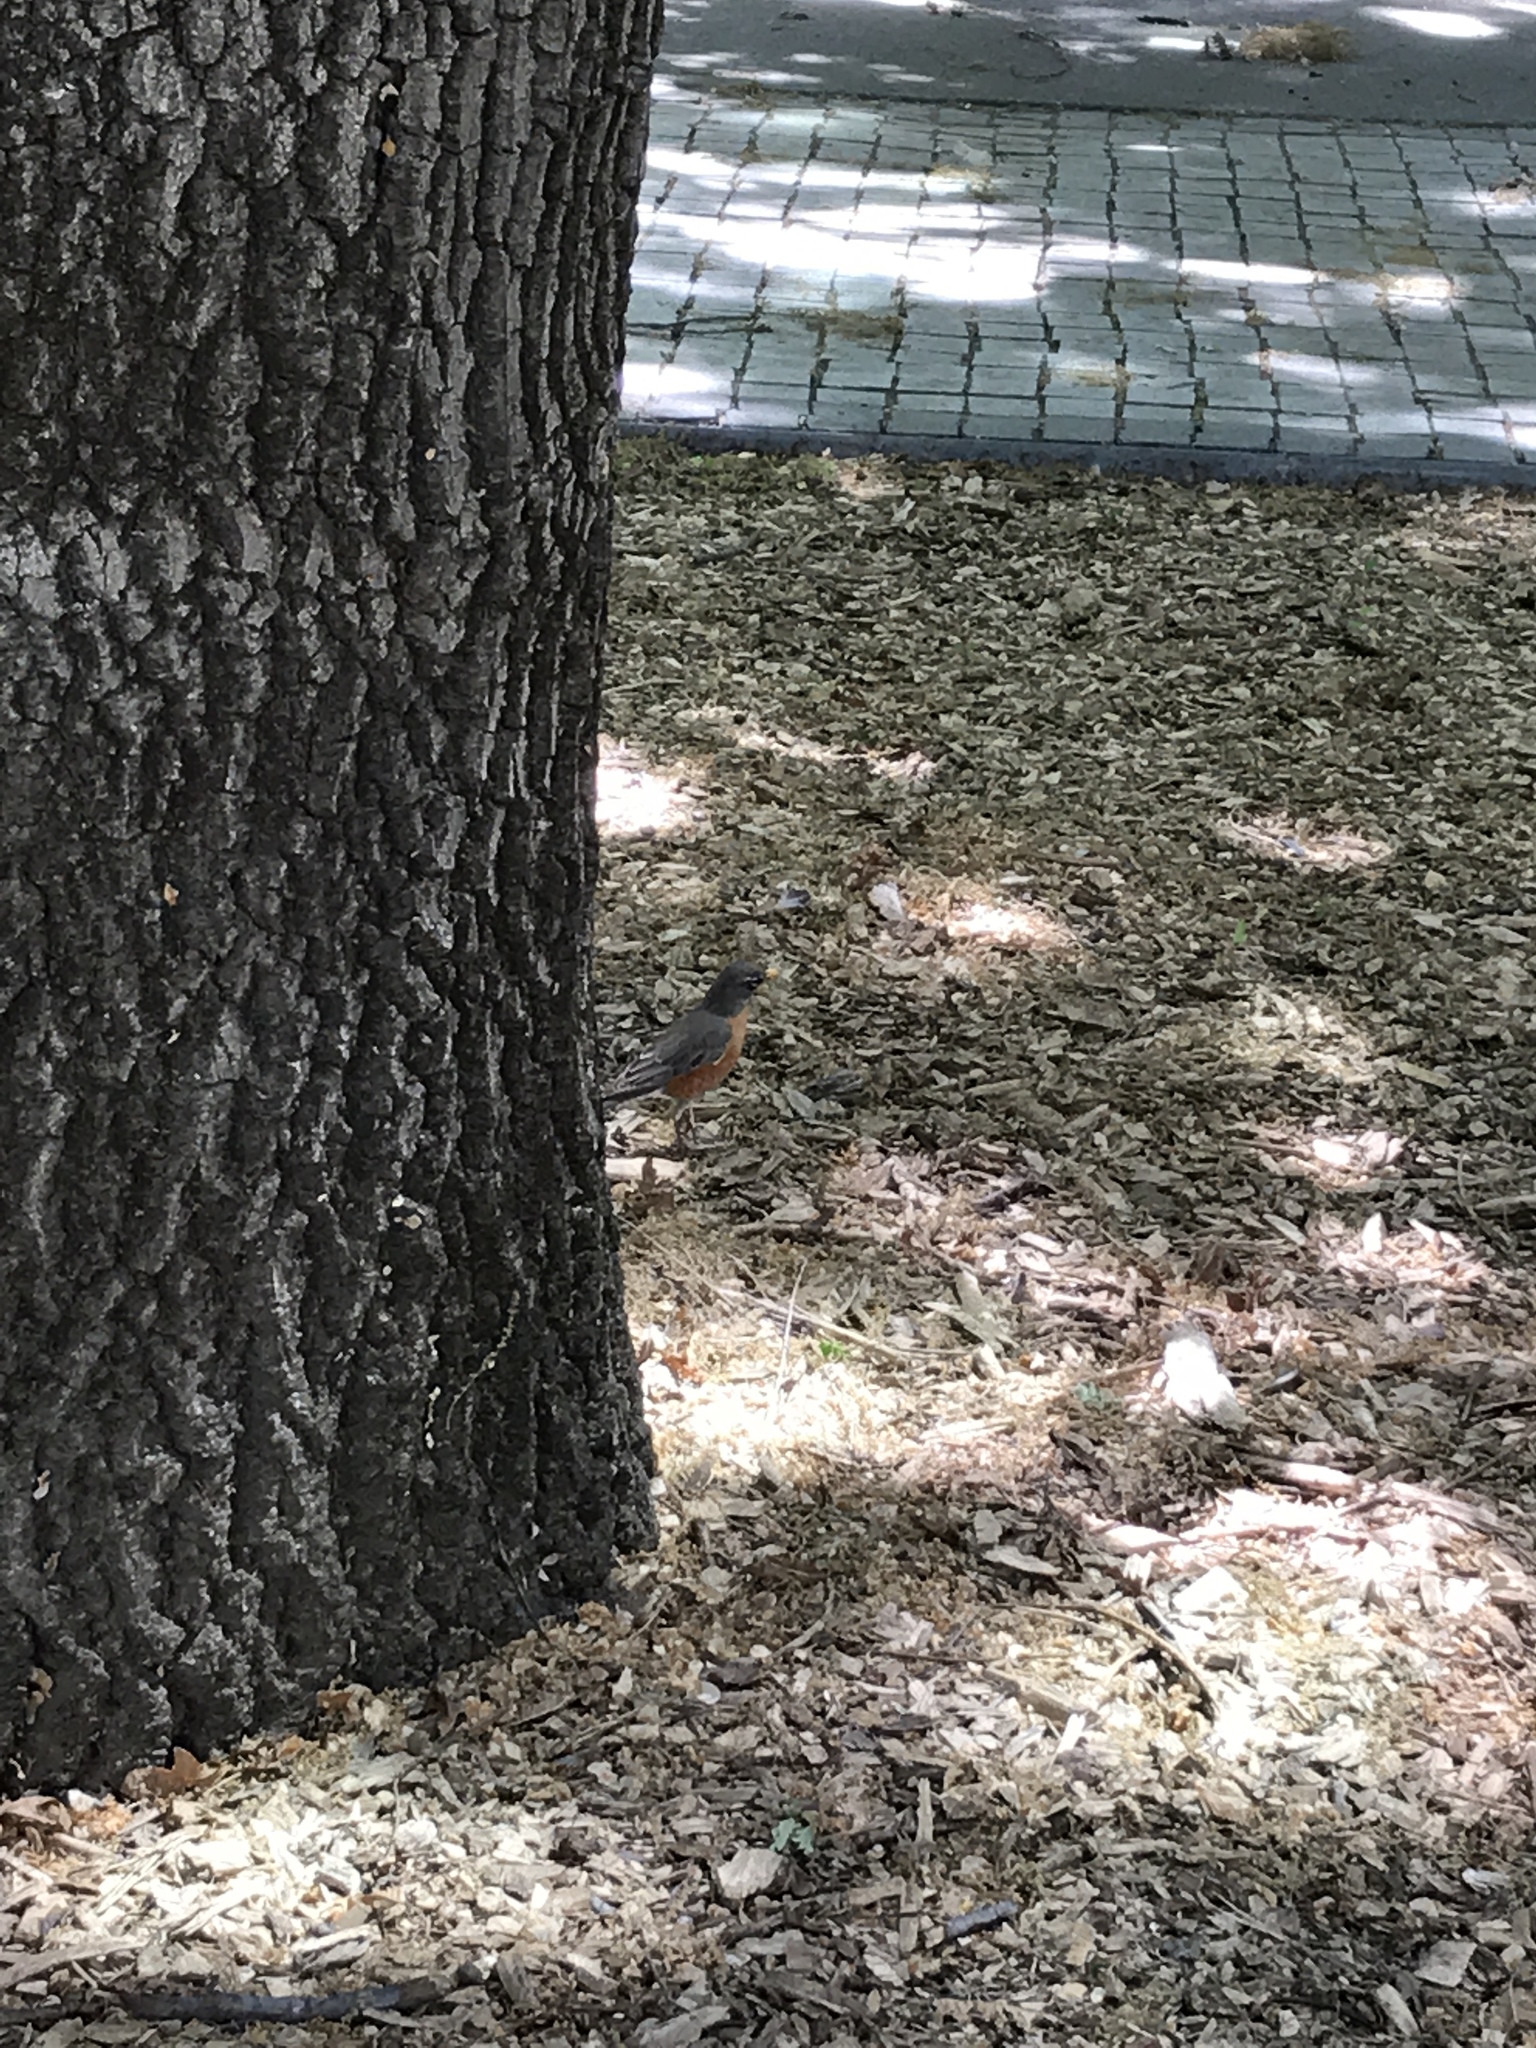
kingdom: Animalia
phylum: Chordata
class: Aves
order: Passeriformes
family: Turdidae
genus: Turdus
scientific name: Turdus migratorius
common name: American robin
